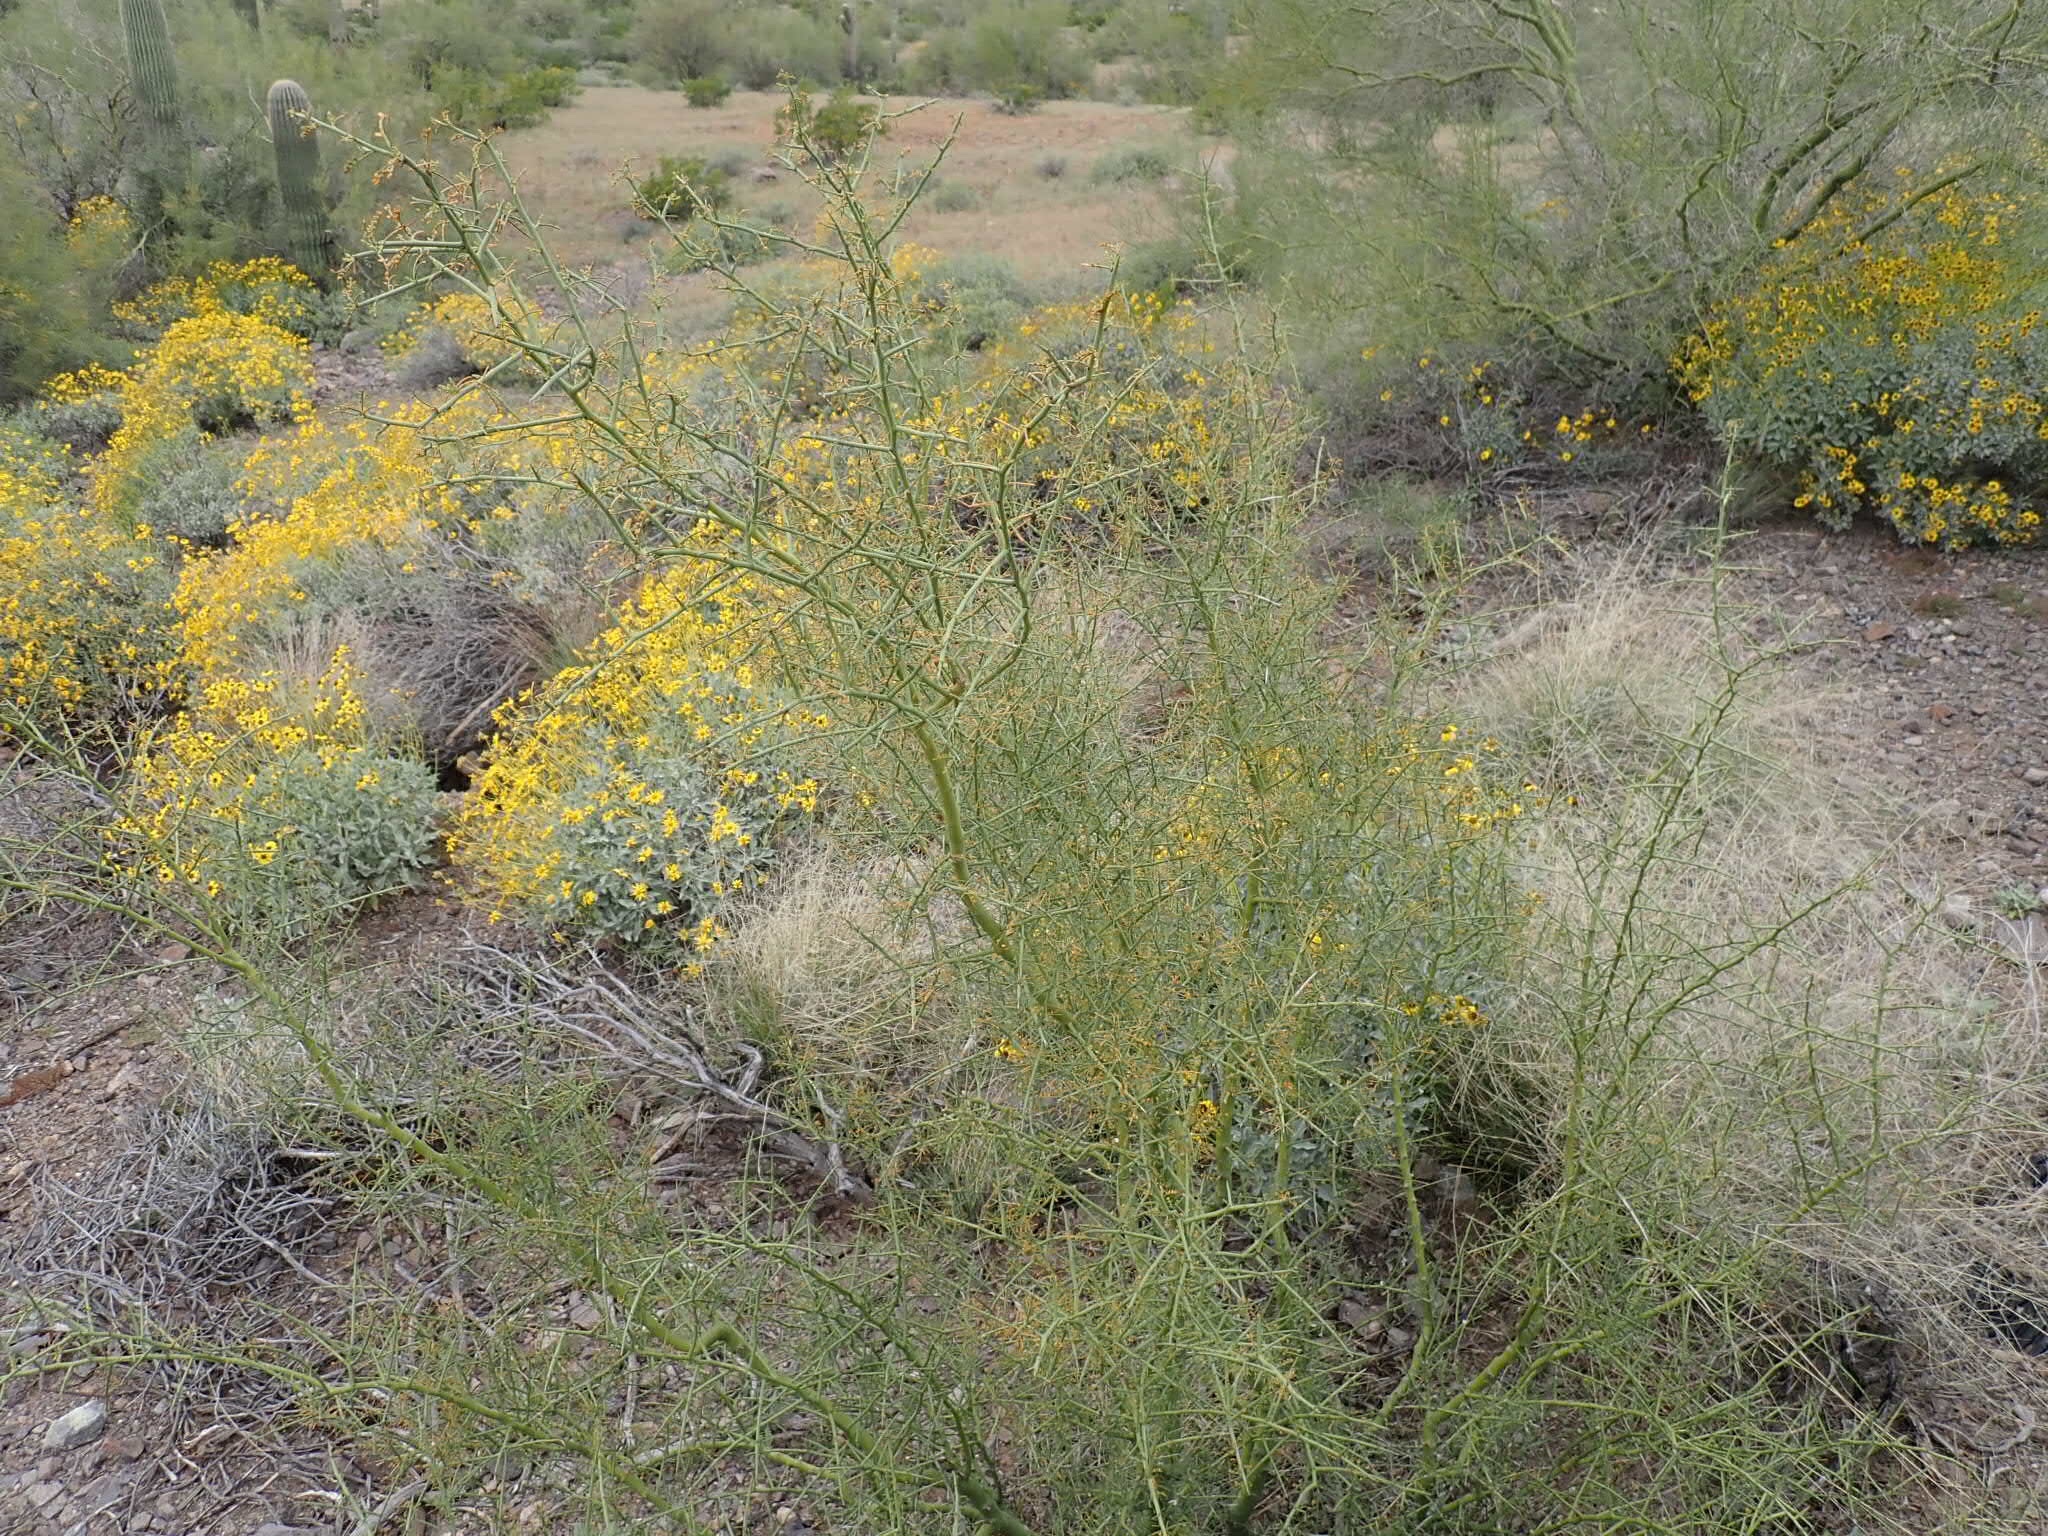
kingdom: Plantae
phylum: Tracheophyta
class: Magnoliopsida
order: Fabales
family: Fabaceae
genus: Parkinsonia
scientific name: Parkinsonia microphylla
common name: Yellow paloverde
